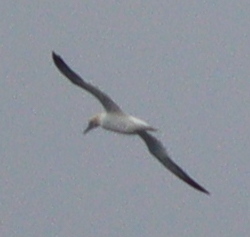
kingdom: Animalia
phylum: Chordata
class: Aves
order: Suliformes
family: Sulidae
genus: Morus
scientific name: Morus bassanus
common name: Northern gannet
